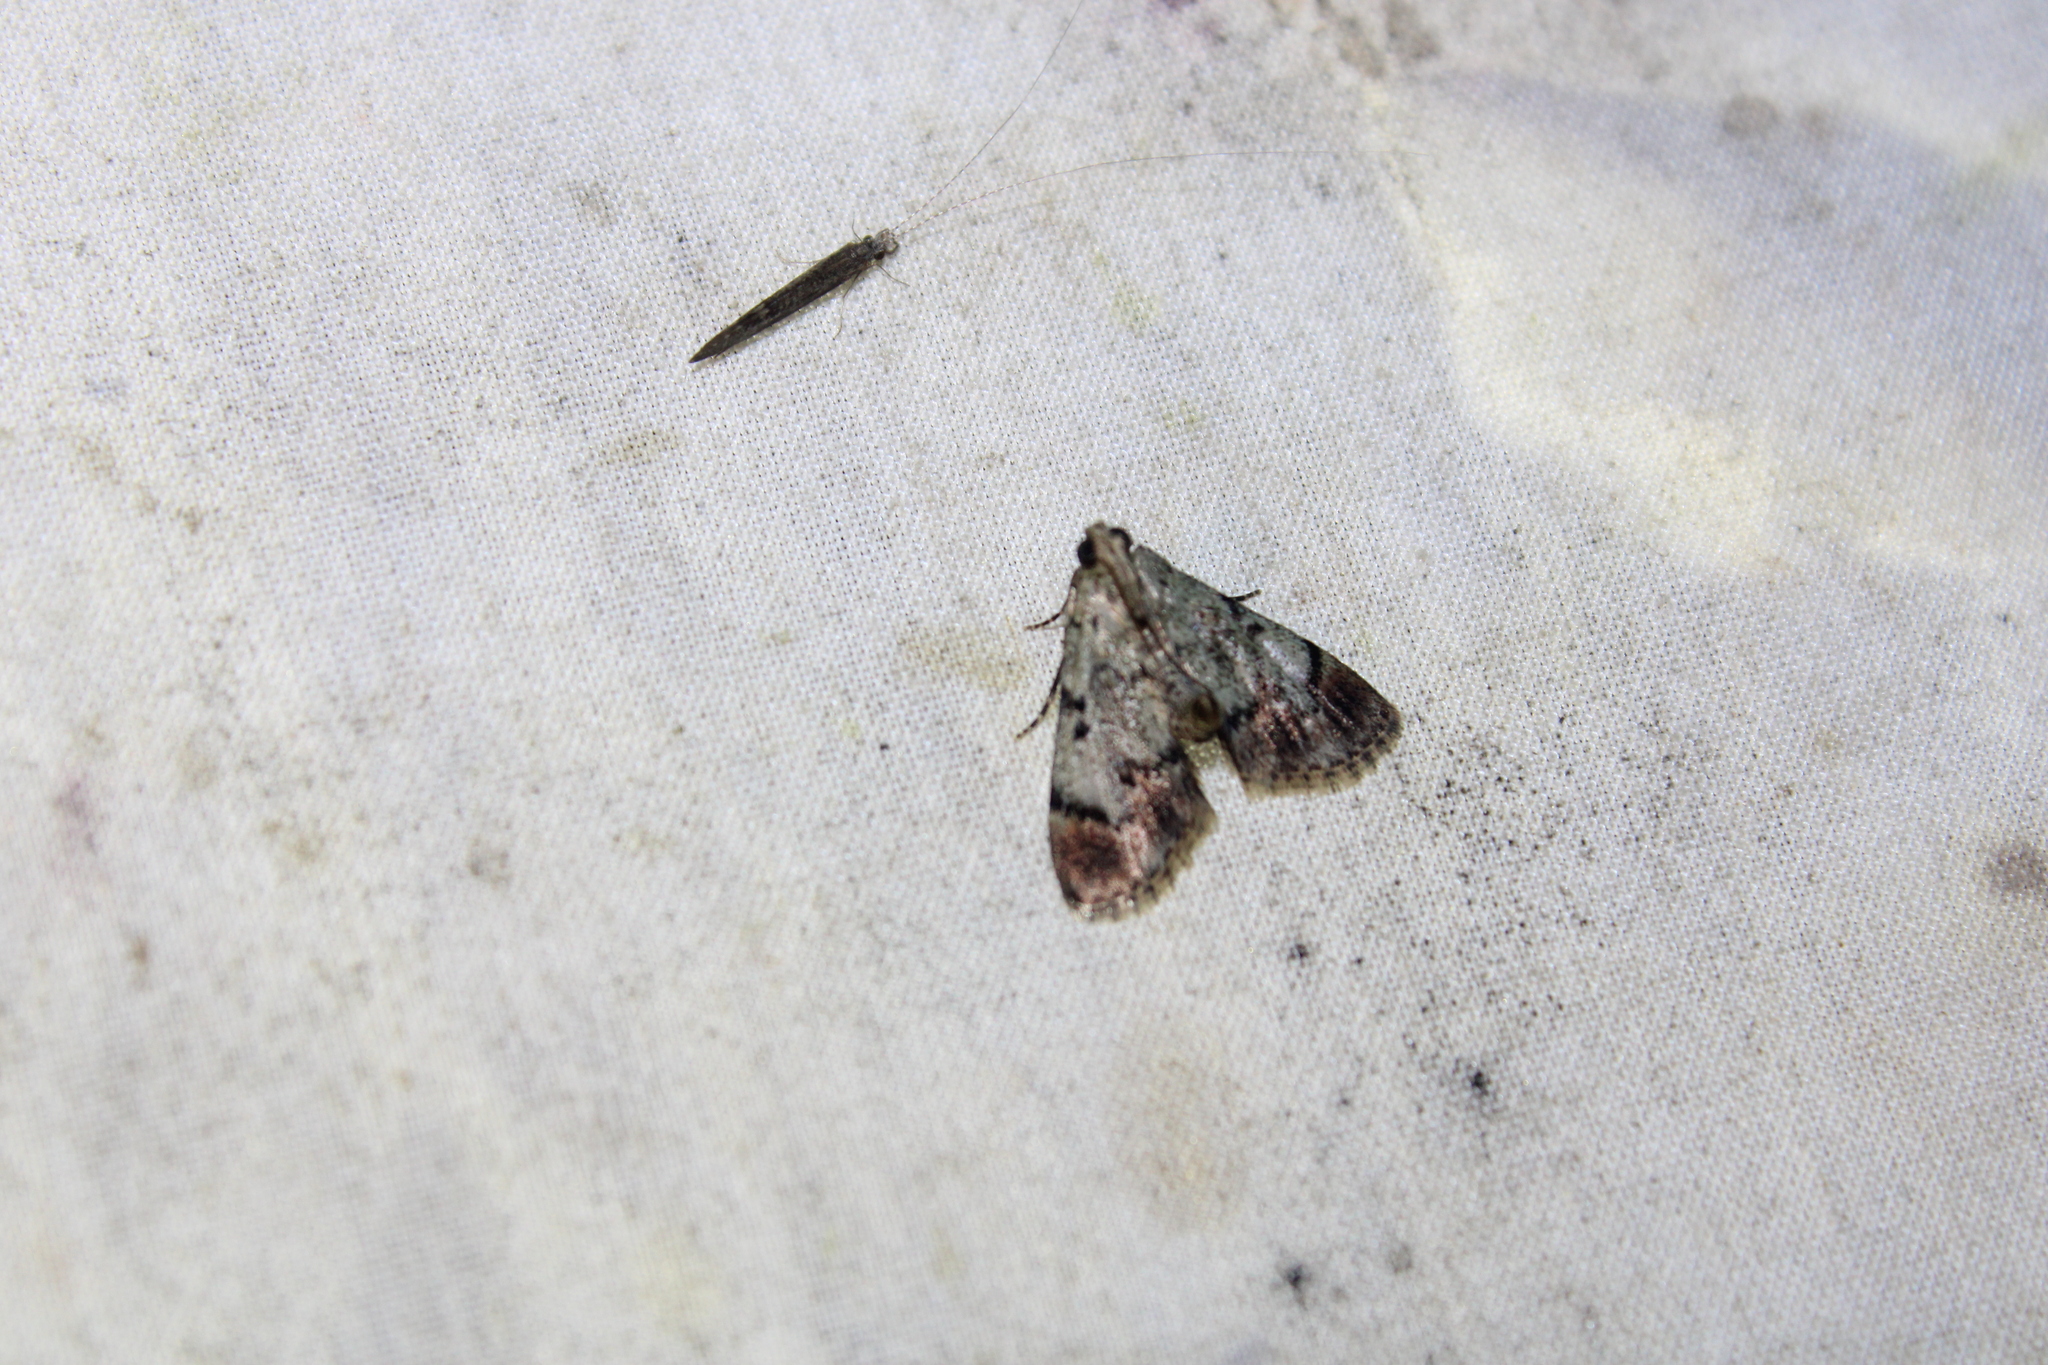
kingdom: Animalia
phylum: Arthropoda
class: Insecta
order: Lepidoptera
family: Pyralidae
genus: Epipaschia
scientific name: Epipaschia superatalis
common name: Dimorphic macalla moth
